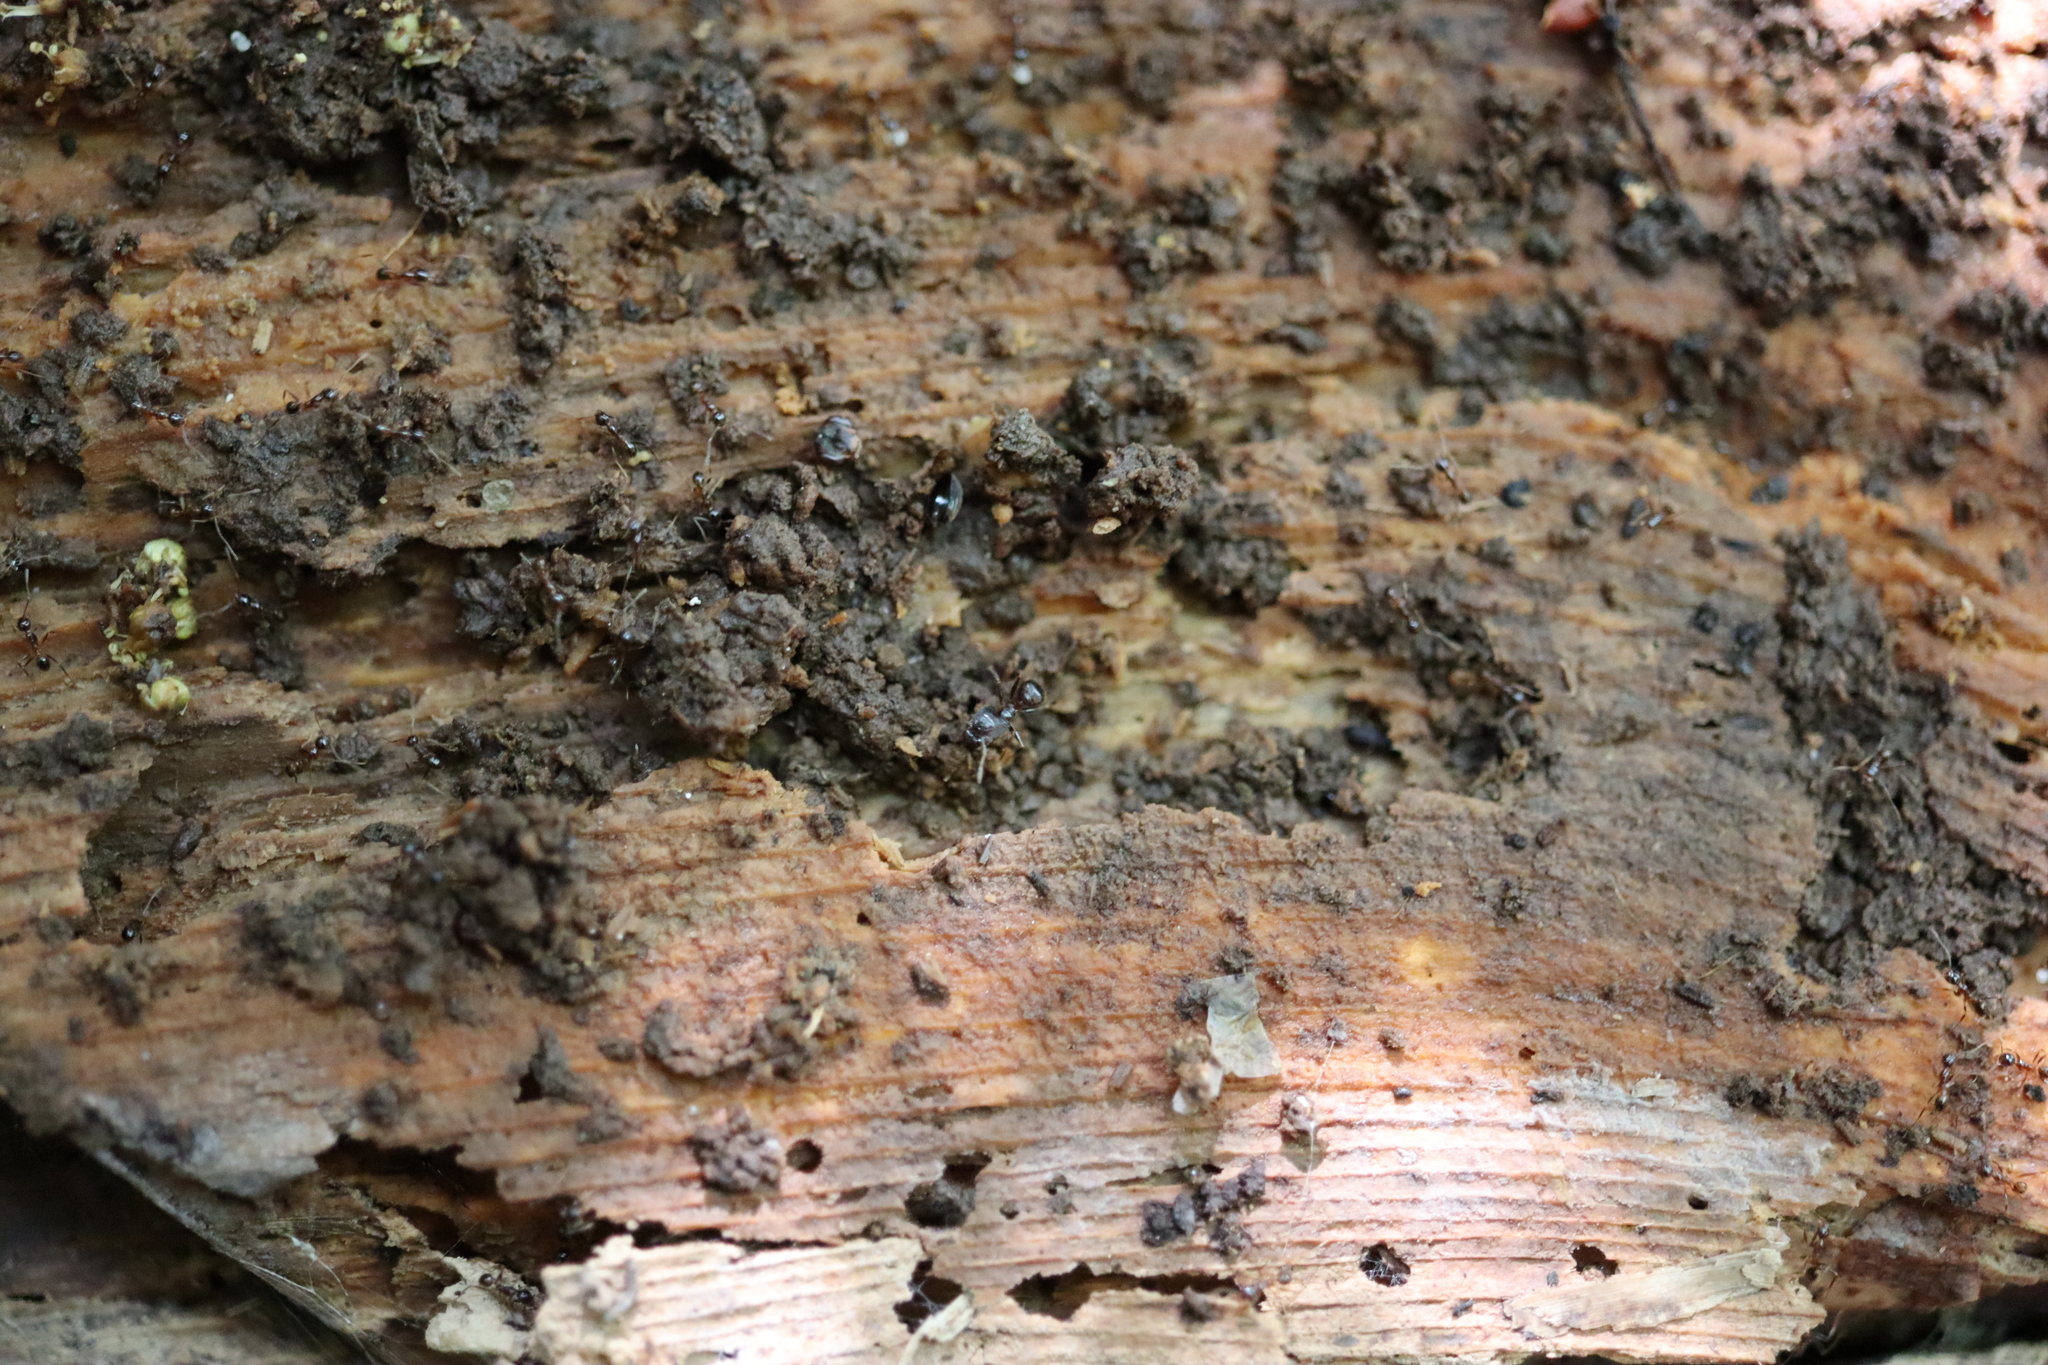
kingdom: Animalia
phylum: Arthropoda
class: Insecta
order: Hymenoptera
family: Formicidae
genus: Pheidole
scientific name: Pheidole noda
